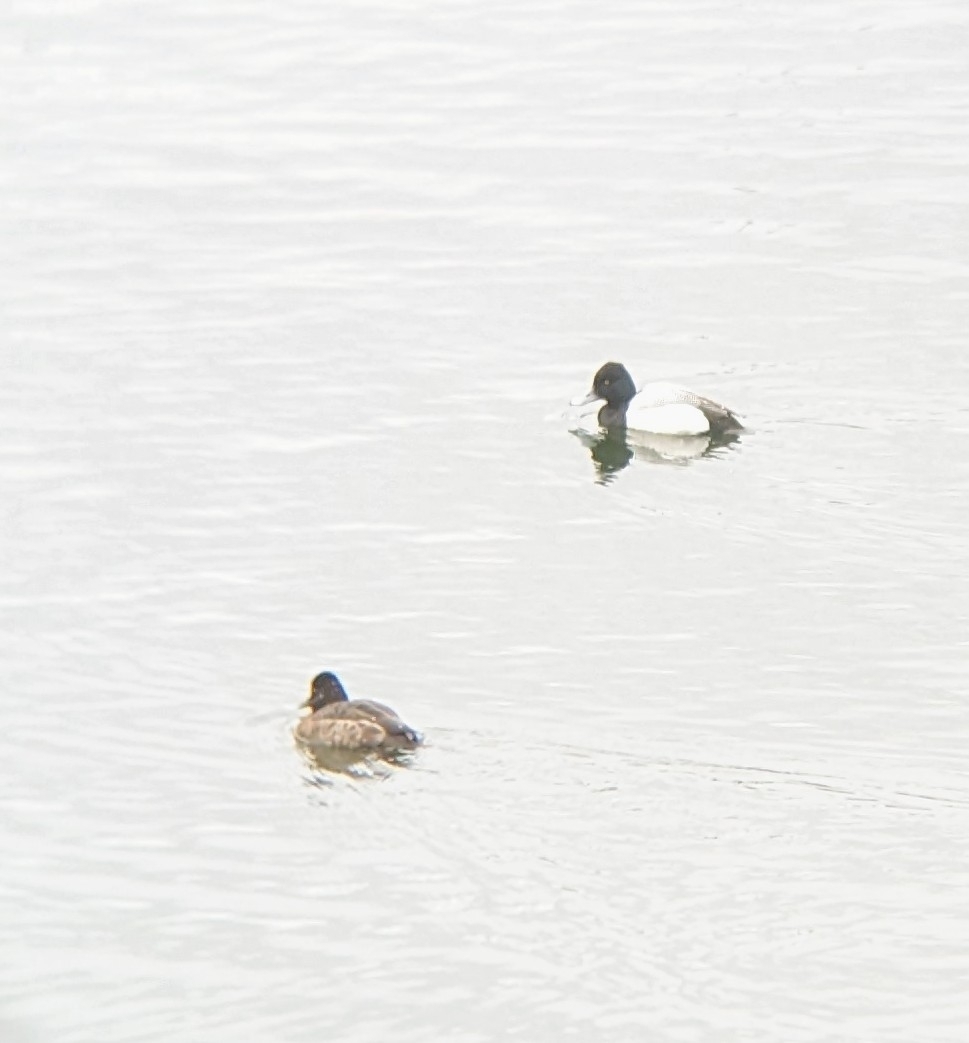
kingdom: Animalia
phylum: Chordata
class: Aves
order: Anseriformes
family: Anatidae
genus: Aythya
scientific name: Aythya affinis
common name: Lesser scaup
